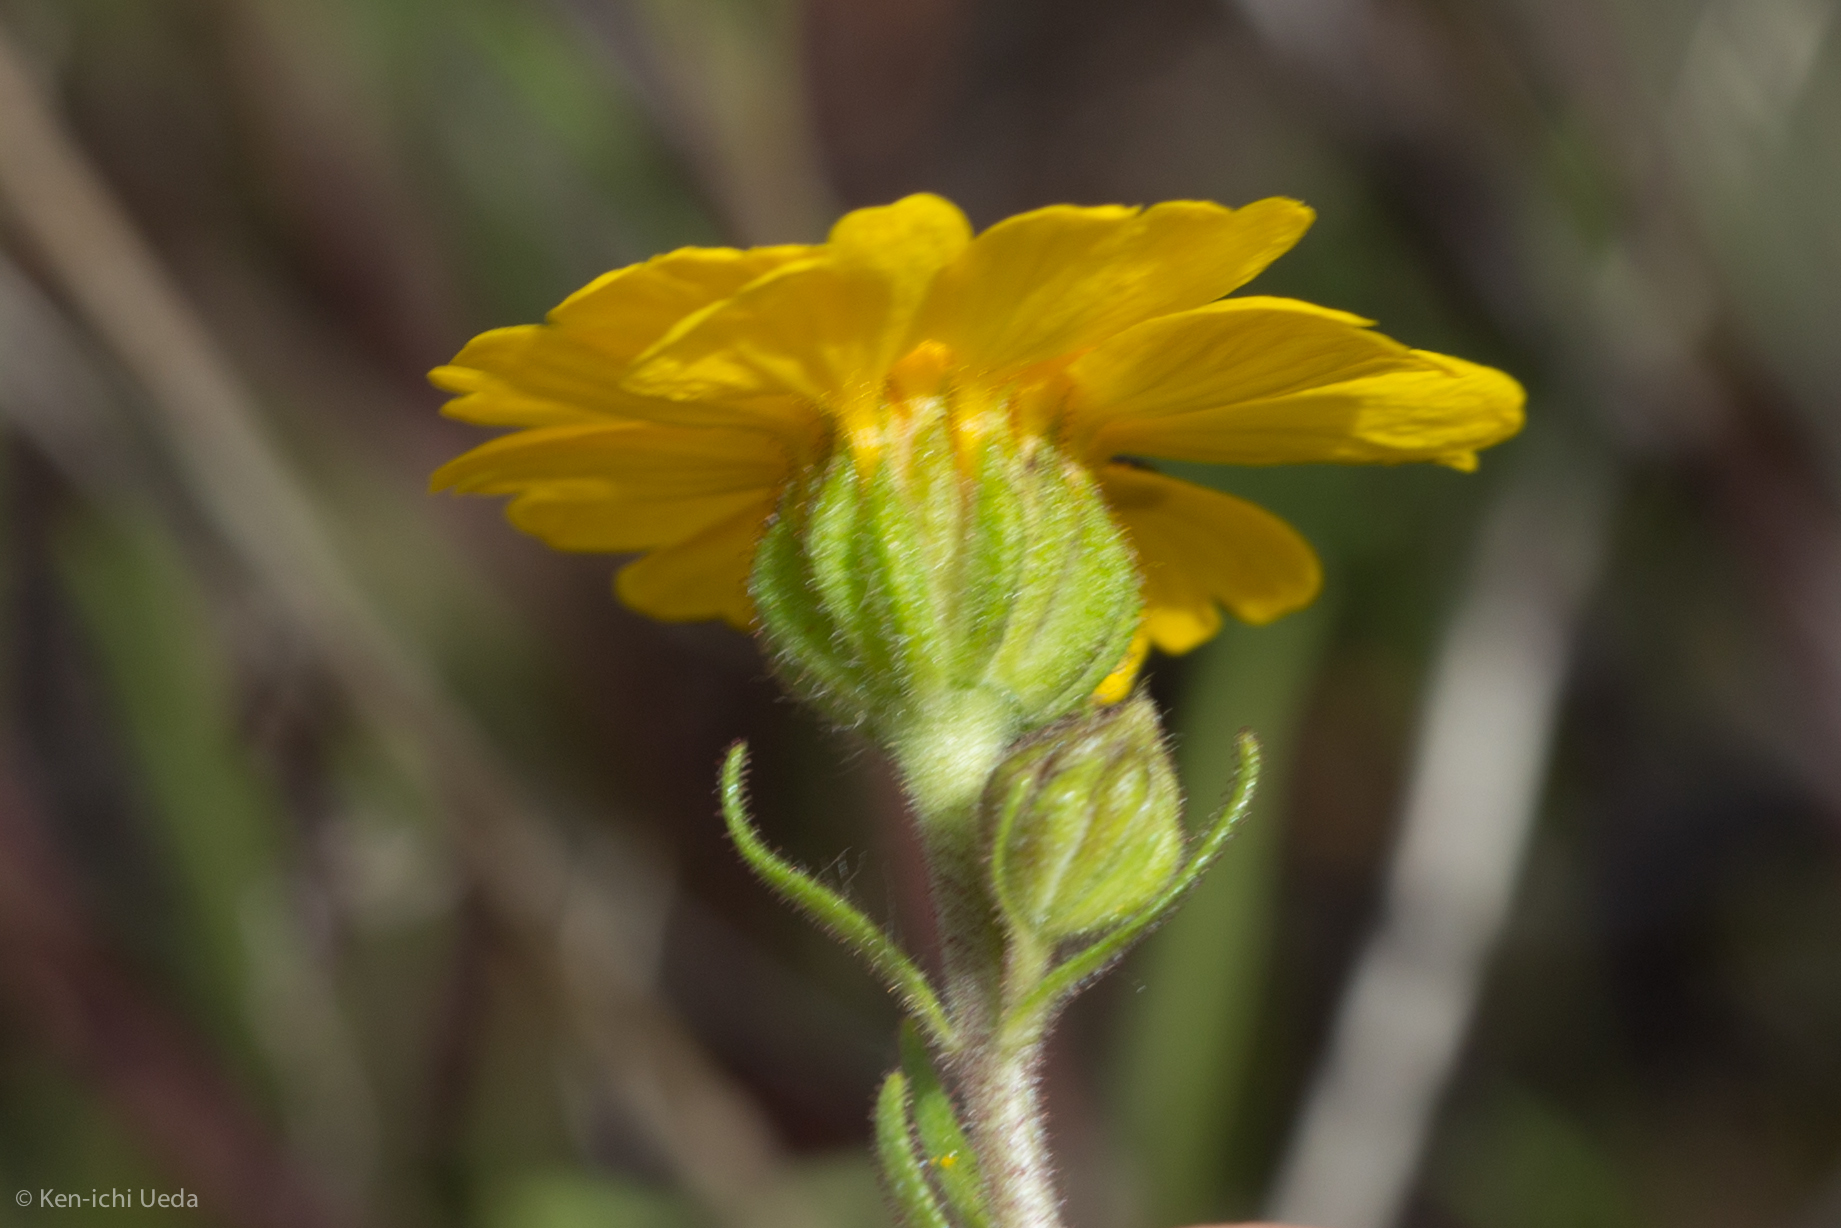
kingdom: Plantae
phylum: Tracheophyta
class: Magnoliopsida
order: Asterales
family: Asteraceae
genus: Madia
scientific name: Madia radiata
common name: Showy madia
